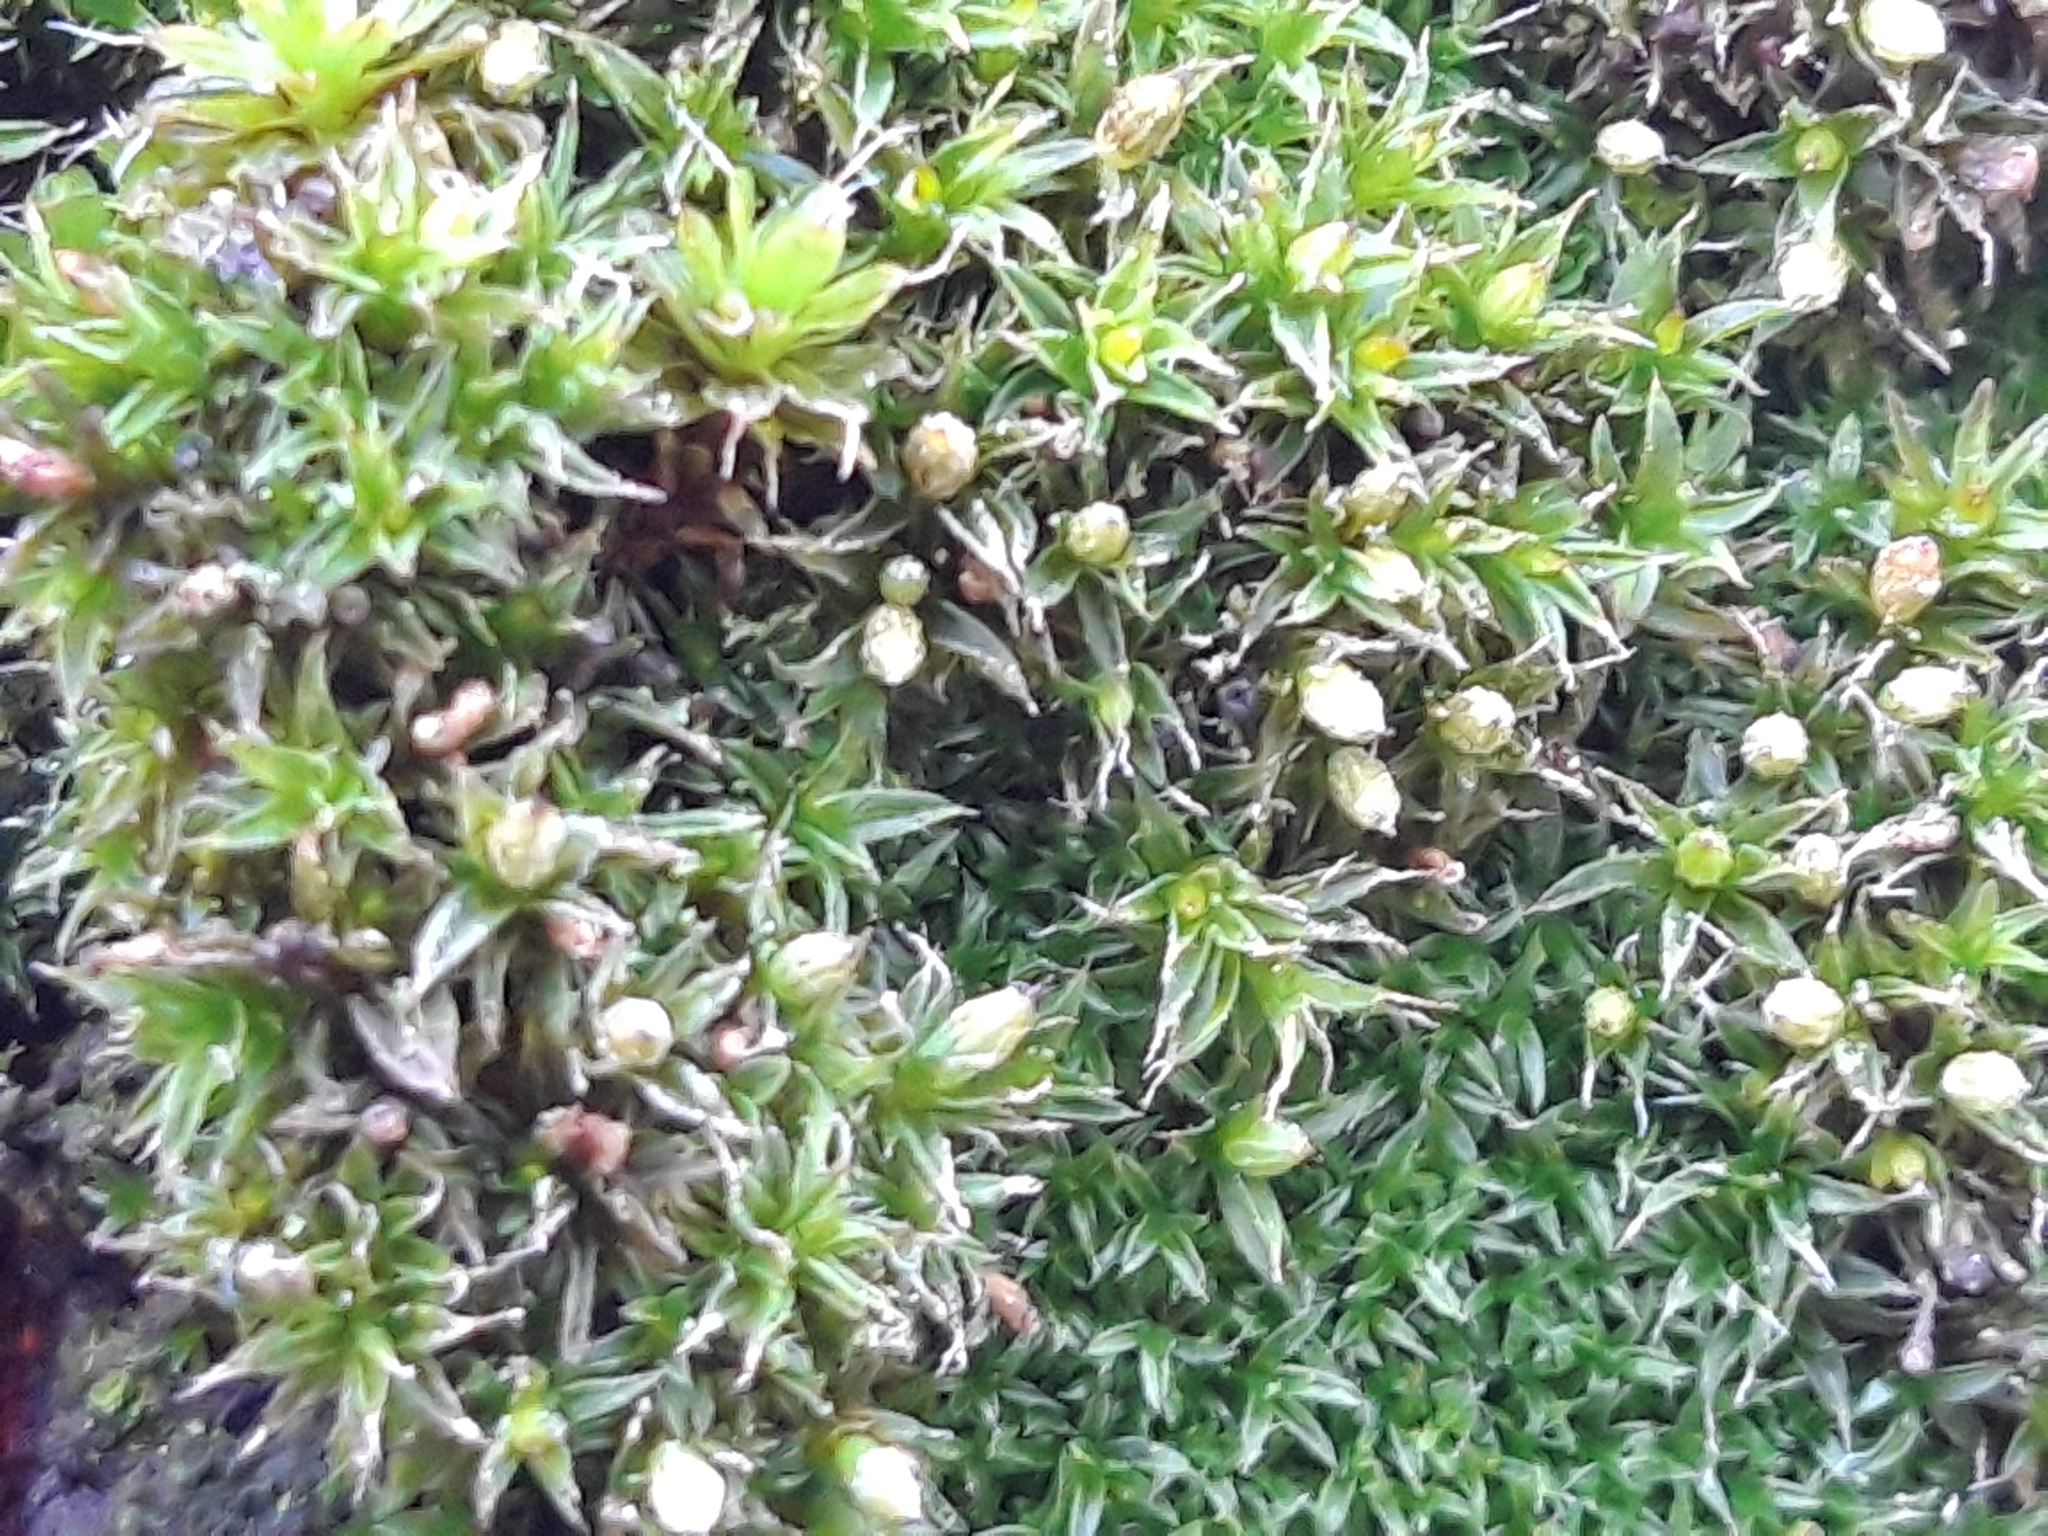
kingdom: Plantae
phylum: Bryophyta
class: Bryopsida
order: Orthotrichales
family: Orthotrichaceae
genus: Orthotrichum
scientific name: Orthotrichum diaphanum
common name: White-tipped bristle-moss
